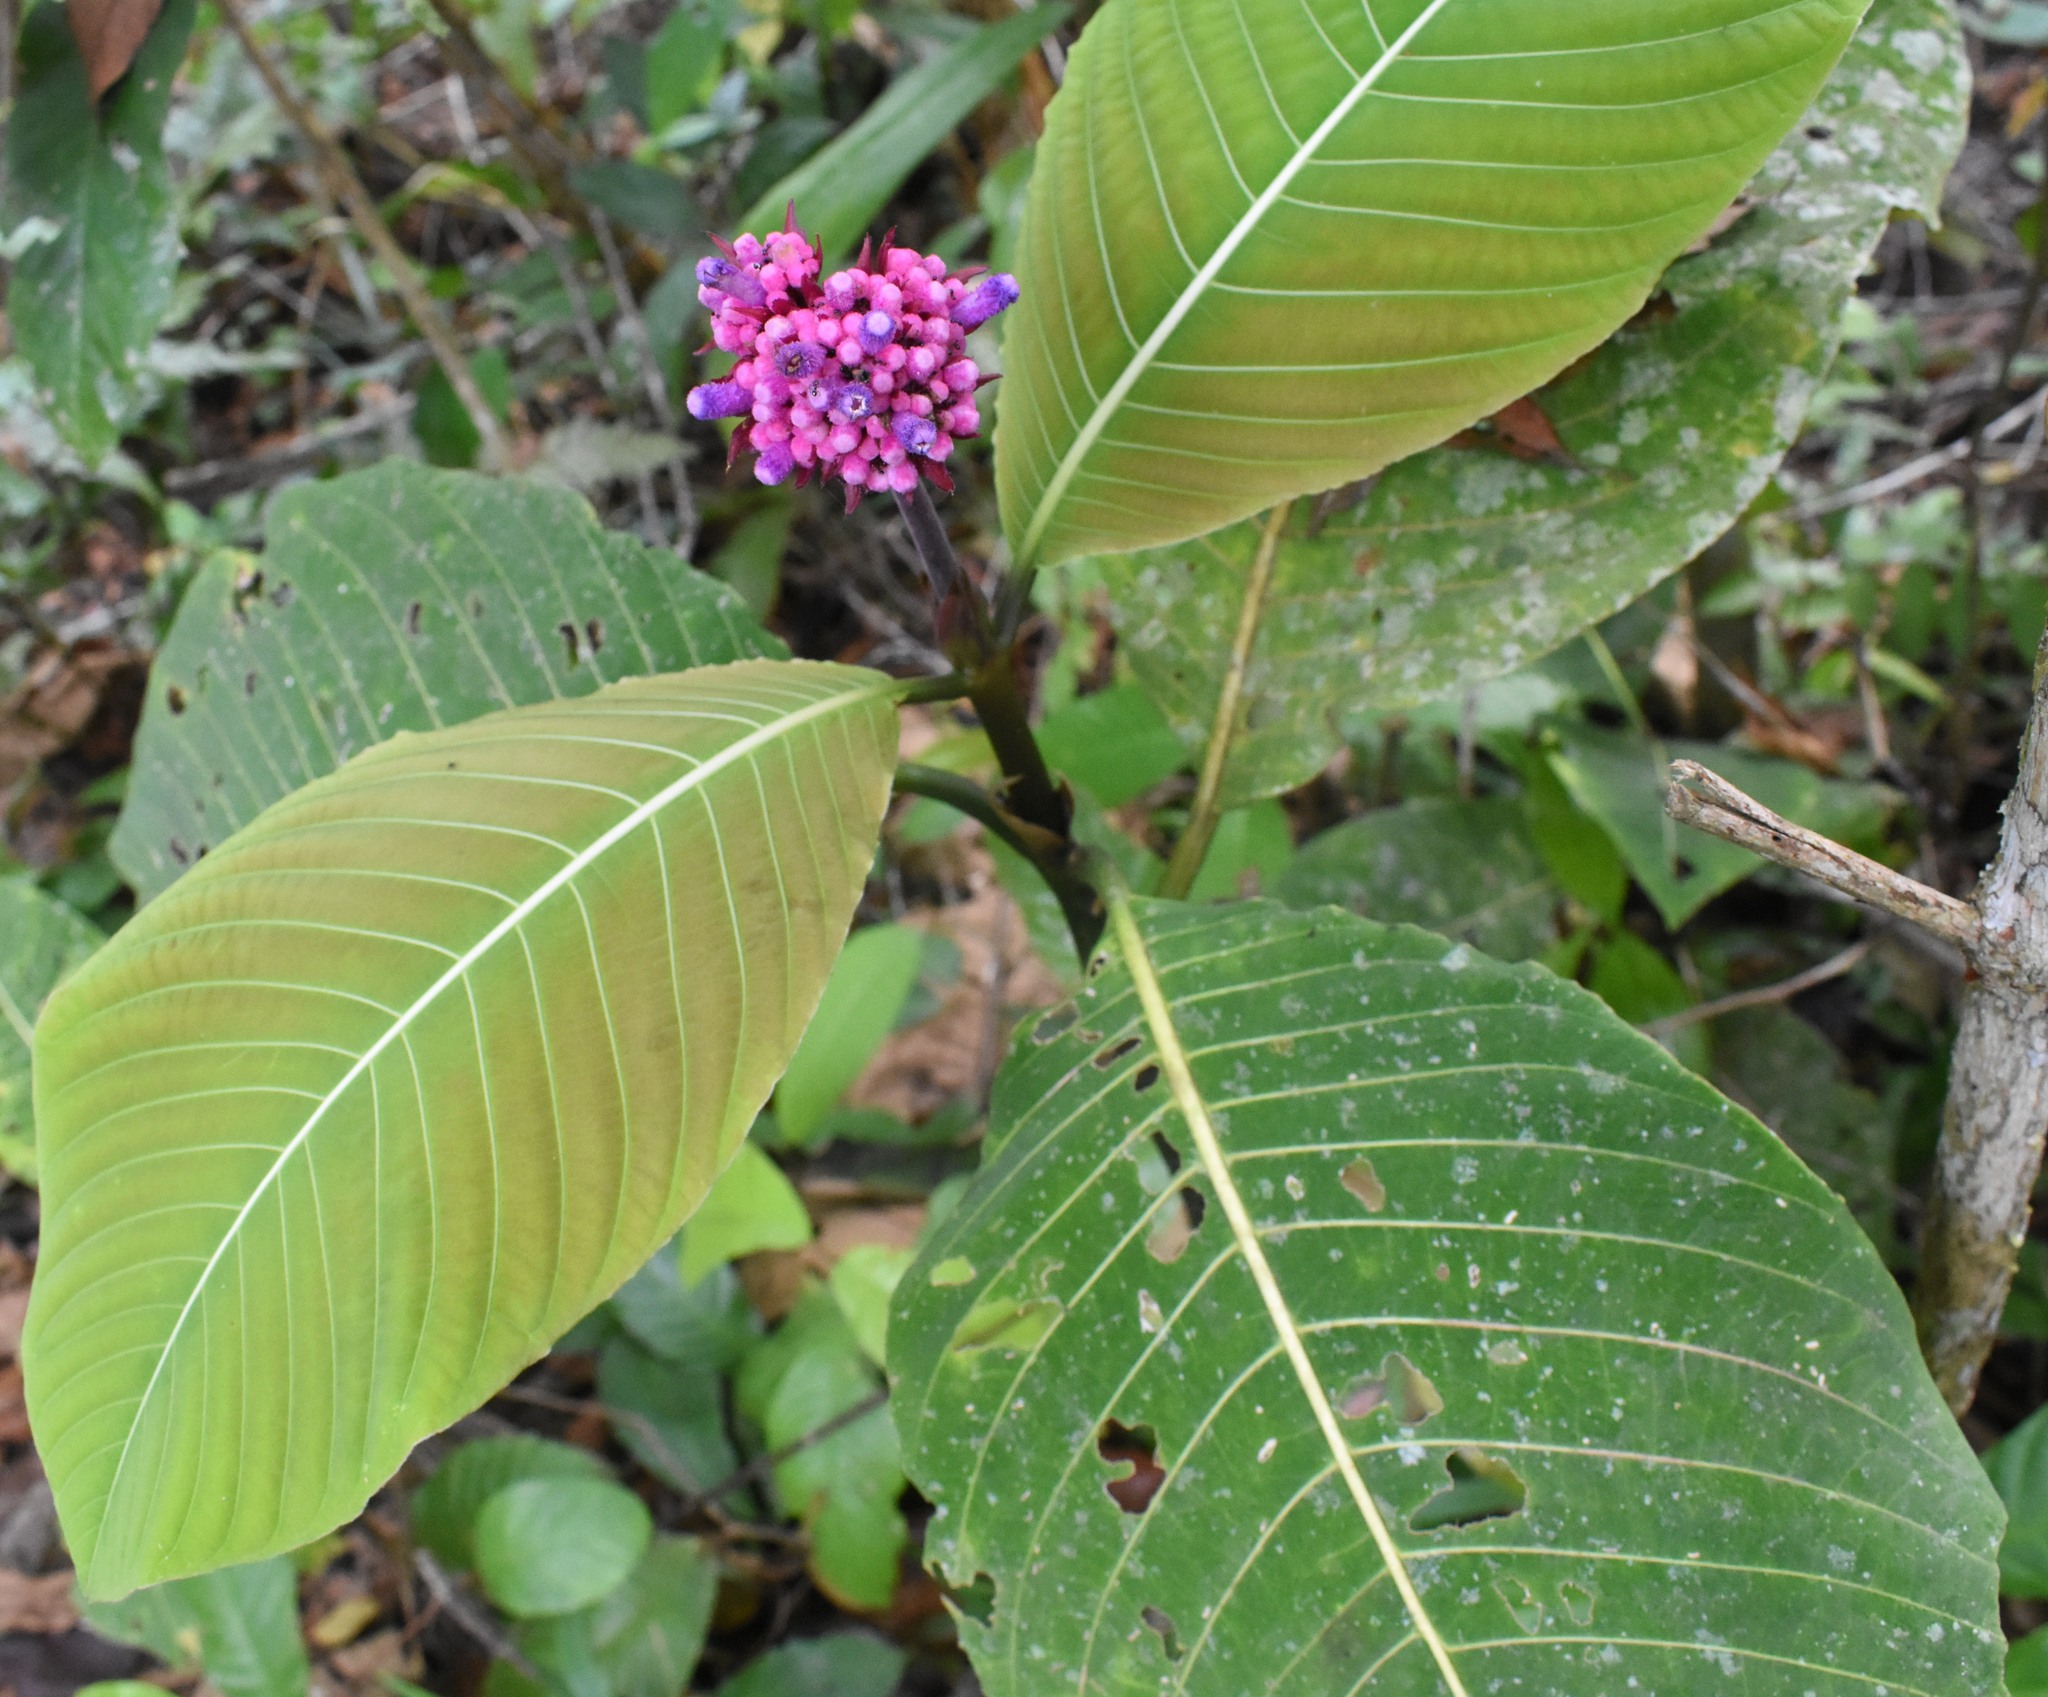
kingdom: Plantae
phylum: Tracheophyta
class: Magnoliopsida
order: Gentianales
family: Rubiaceae
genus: Palicourea
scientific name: Palicourea paulina
